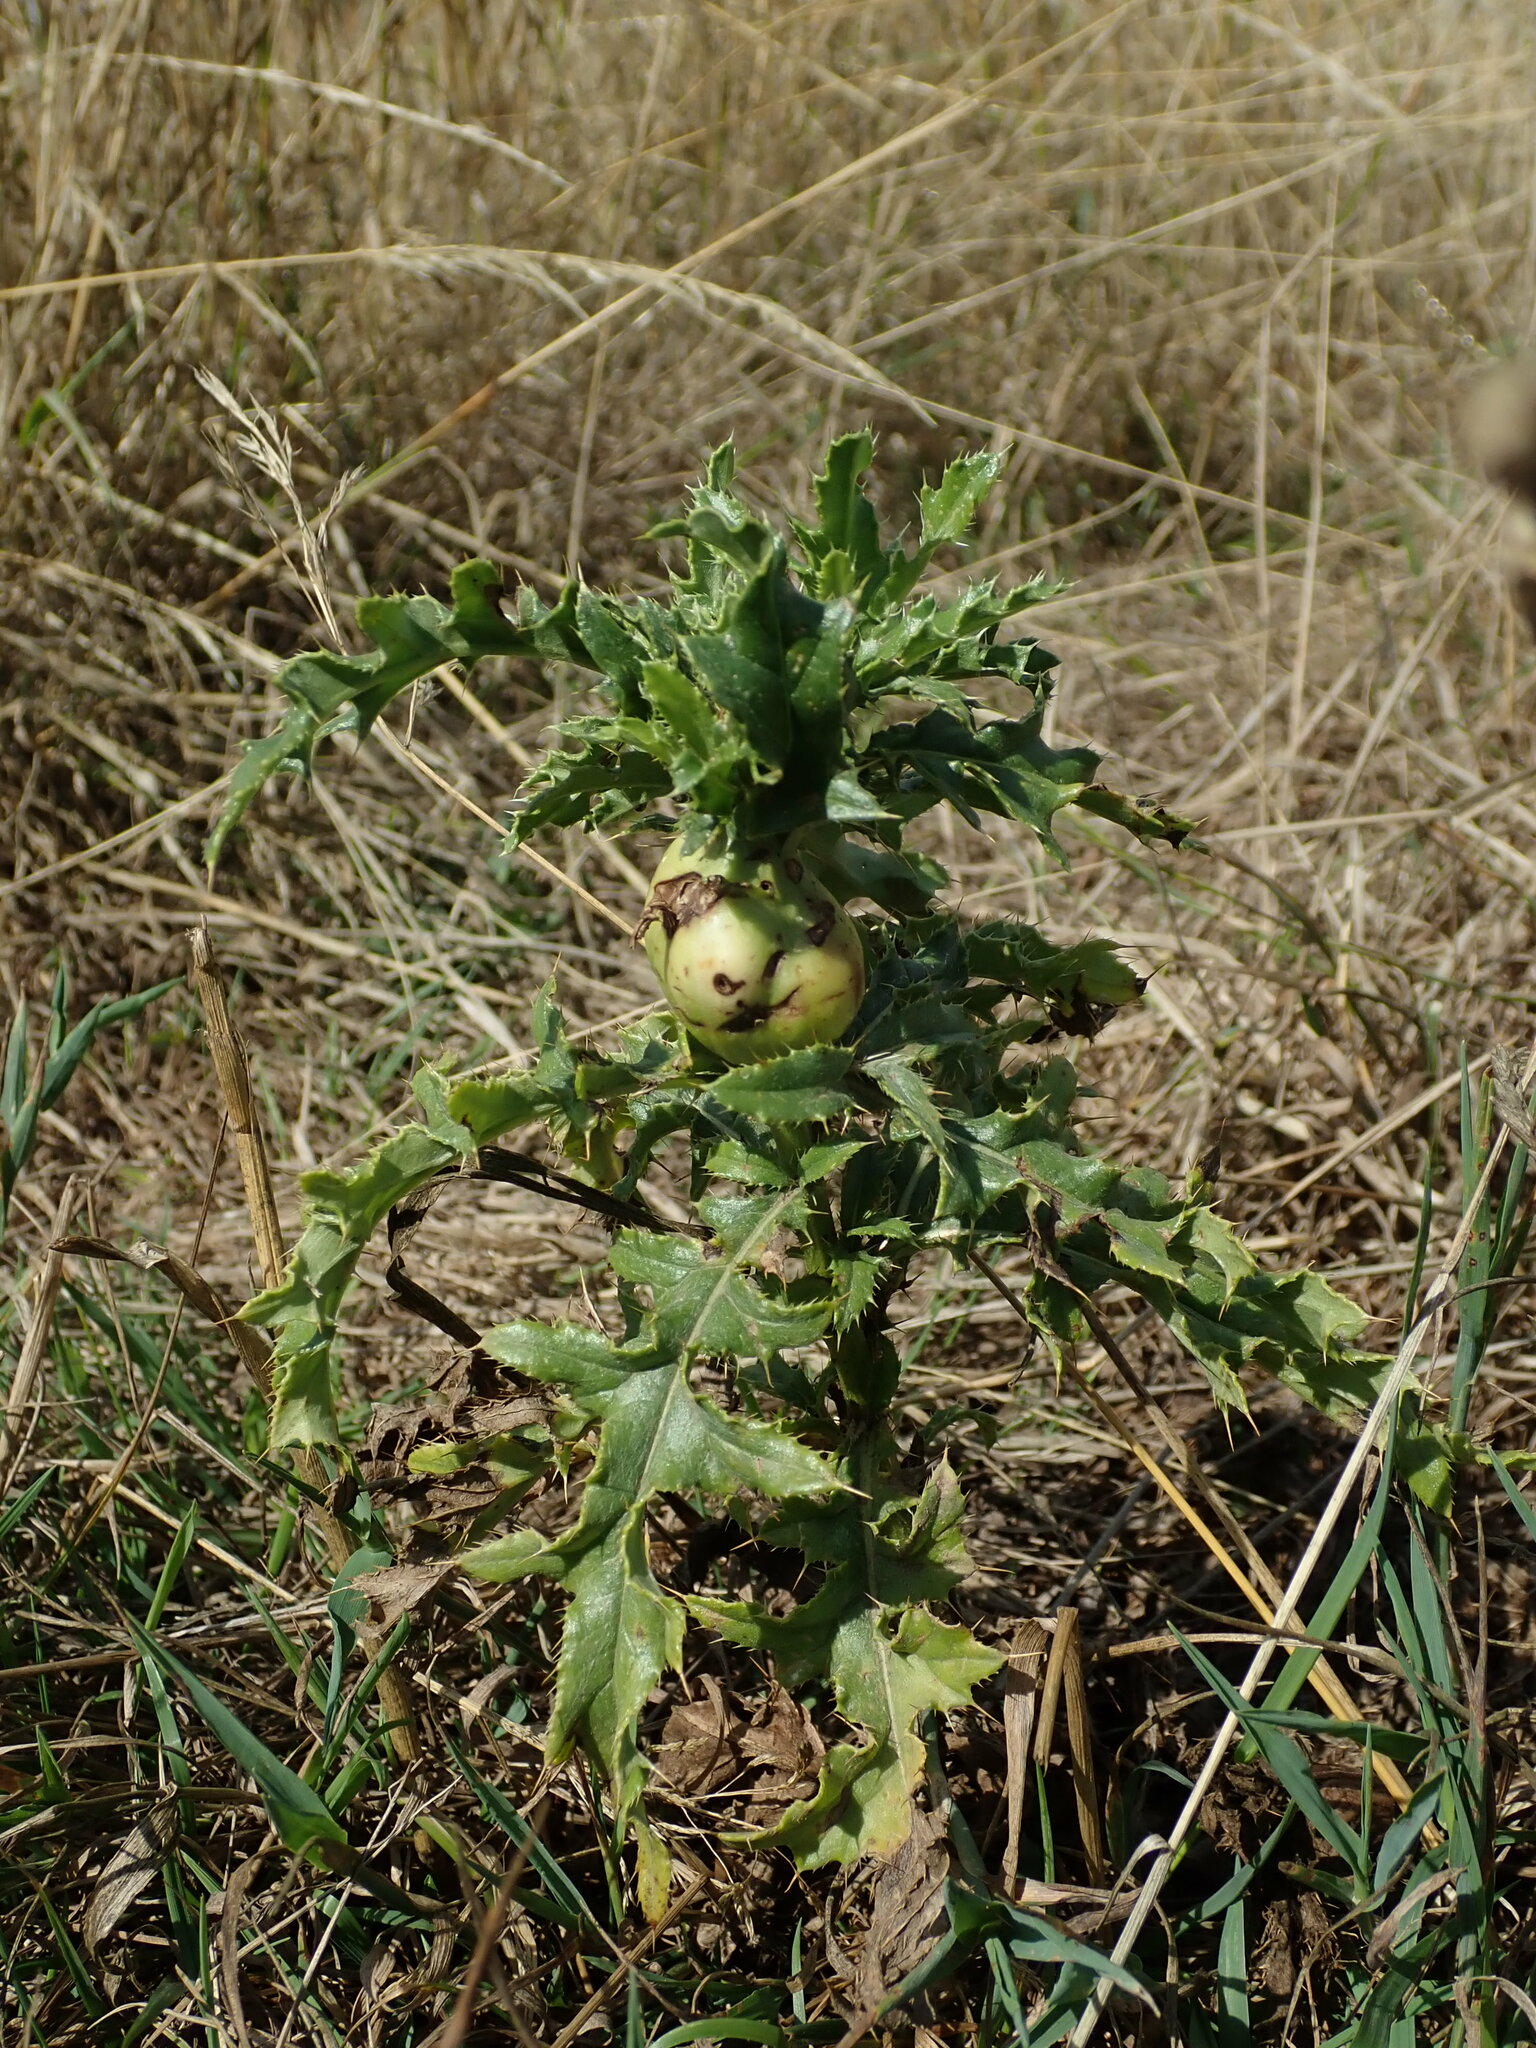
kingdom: Animalia
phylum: Arthropoda
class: Insecta
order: Diptera
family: Tephritidae
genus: Urophora
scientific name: Urophora cardui
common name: Fruit fly
